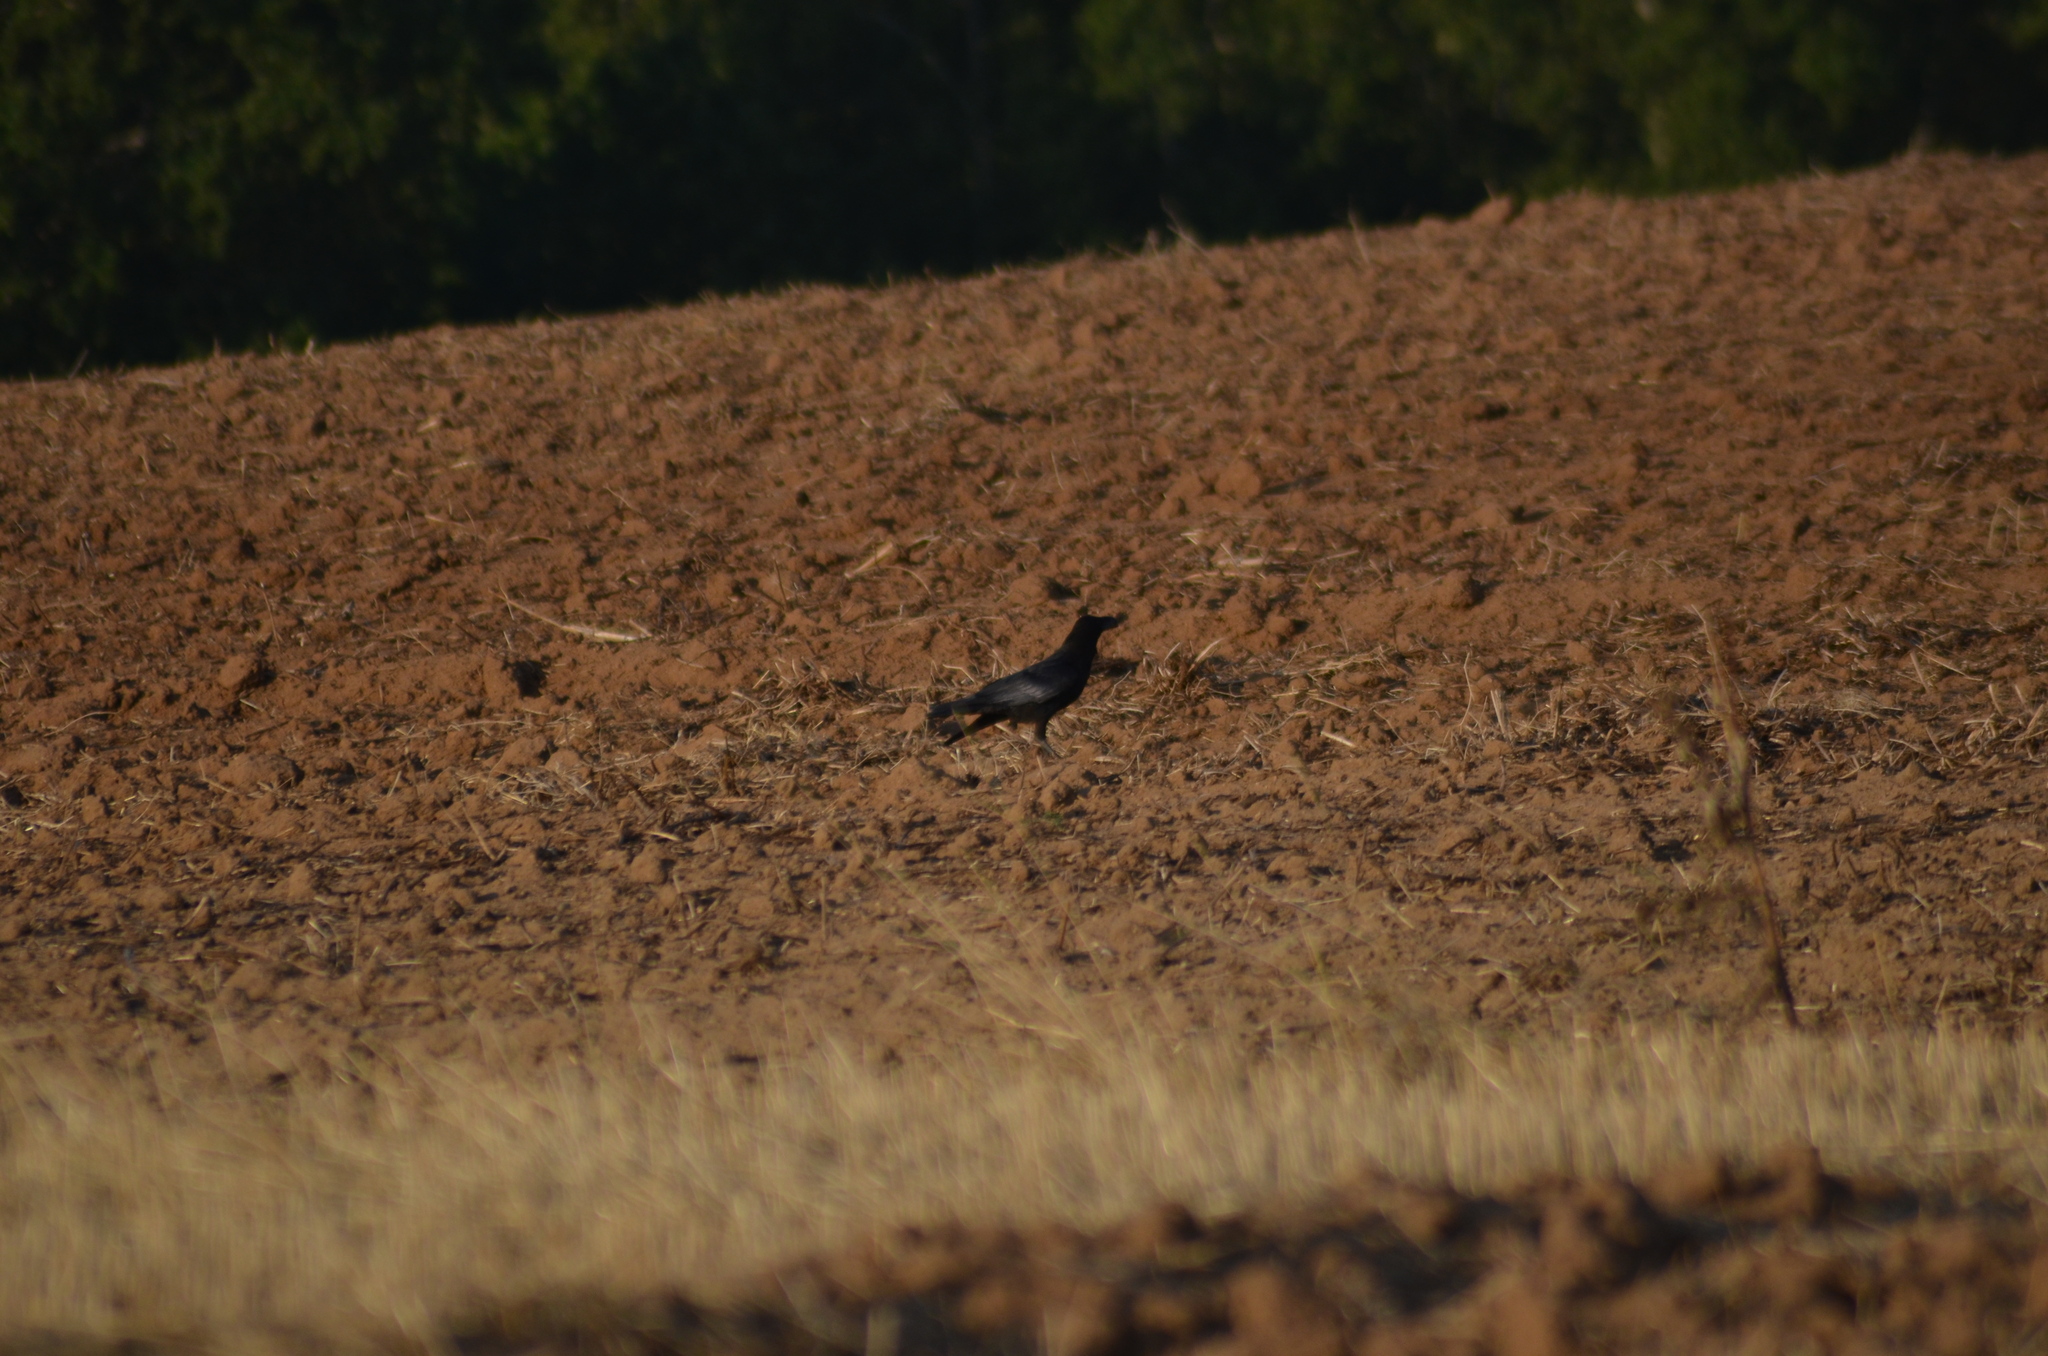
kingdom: Animalia
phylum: Chordata
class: Aves
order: Passeriformes
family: Corvidae
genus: Corvus
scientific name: Corvus corax
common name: Common raven
